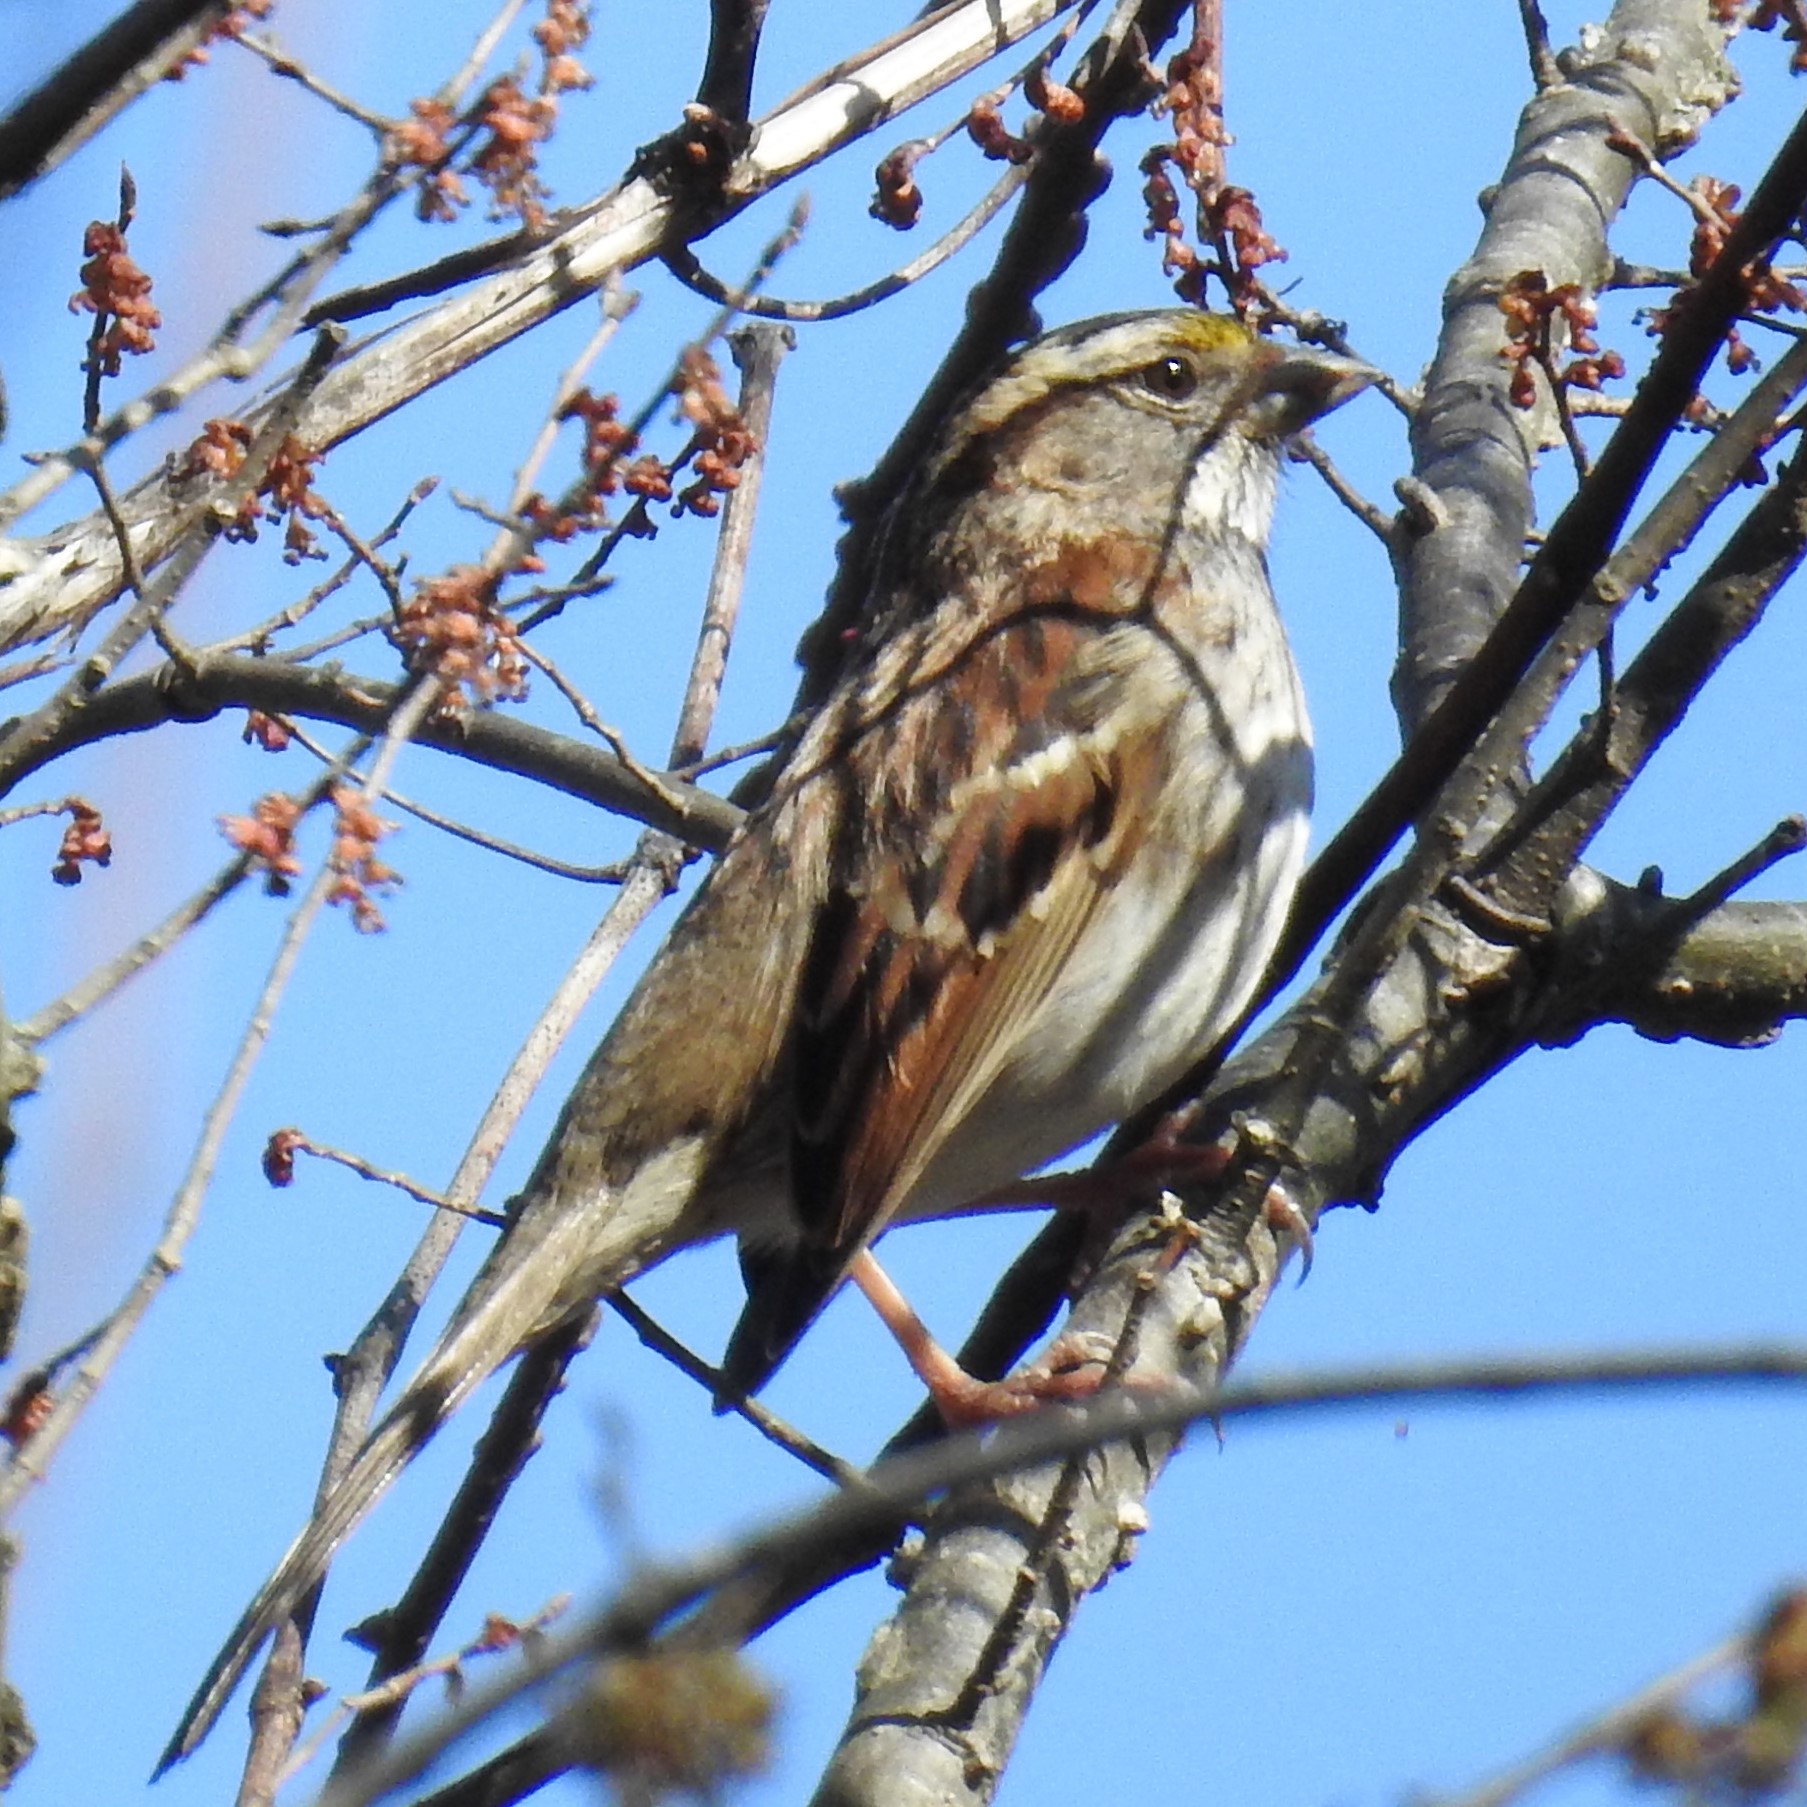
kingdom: Animalia
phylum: Chordata
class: Aves
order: Passeriformes
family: Passerellidae
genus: Zonotrichia
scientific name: Zonotrichia albicollis
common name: White-throated sparrow
